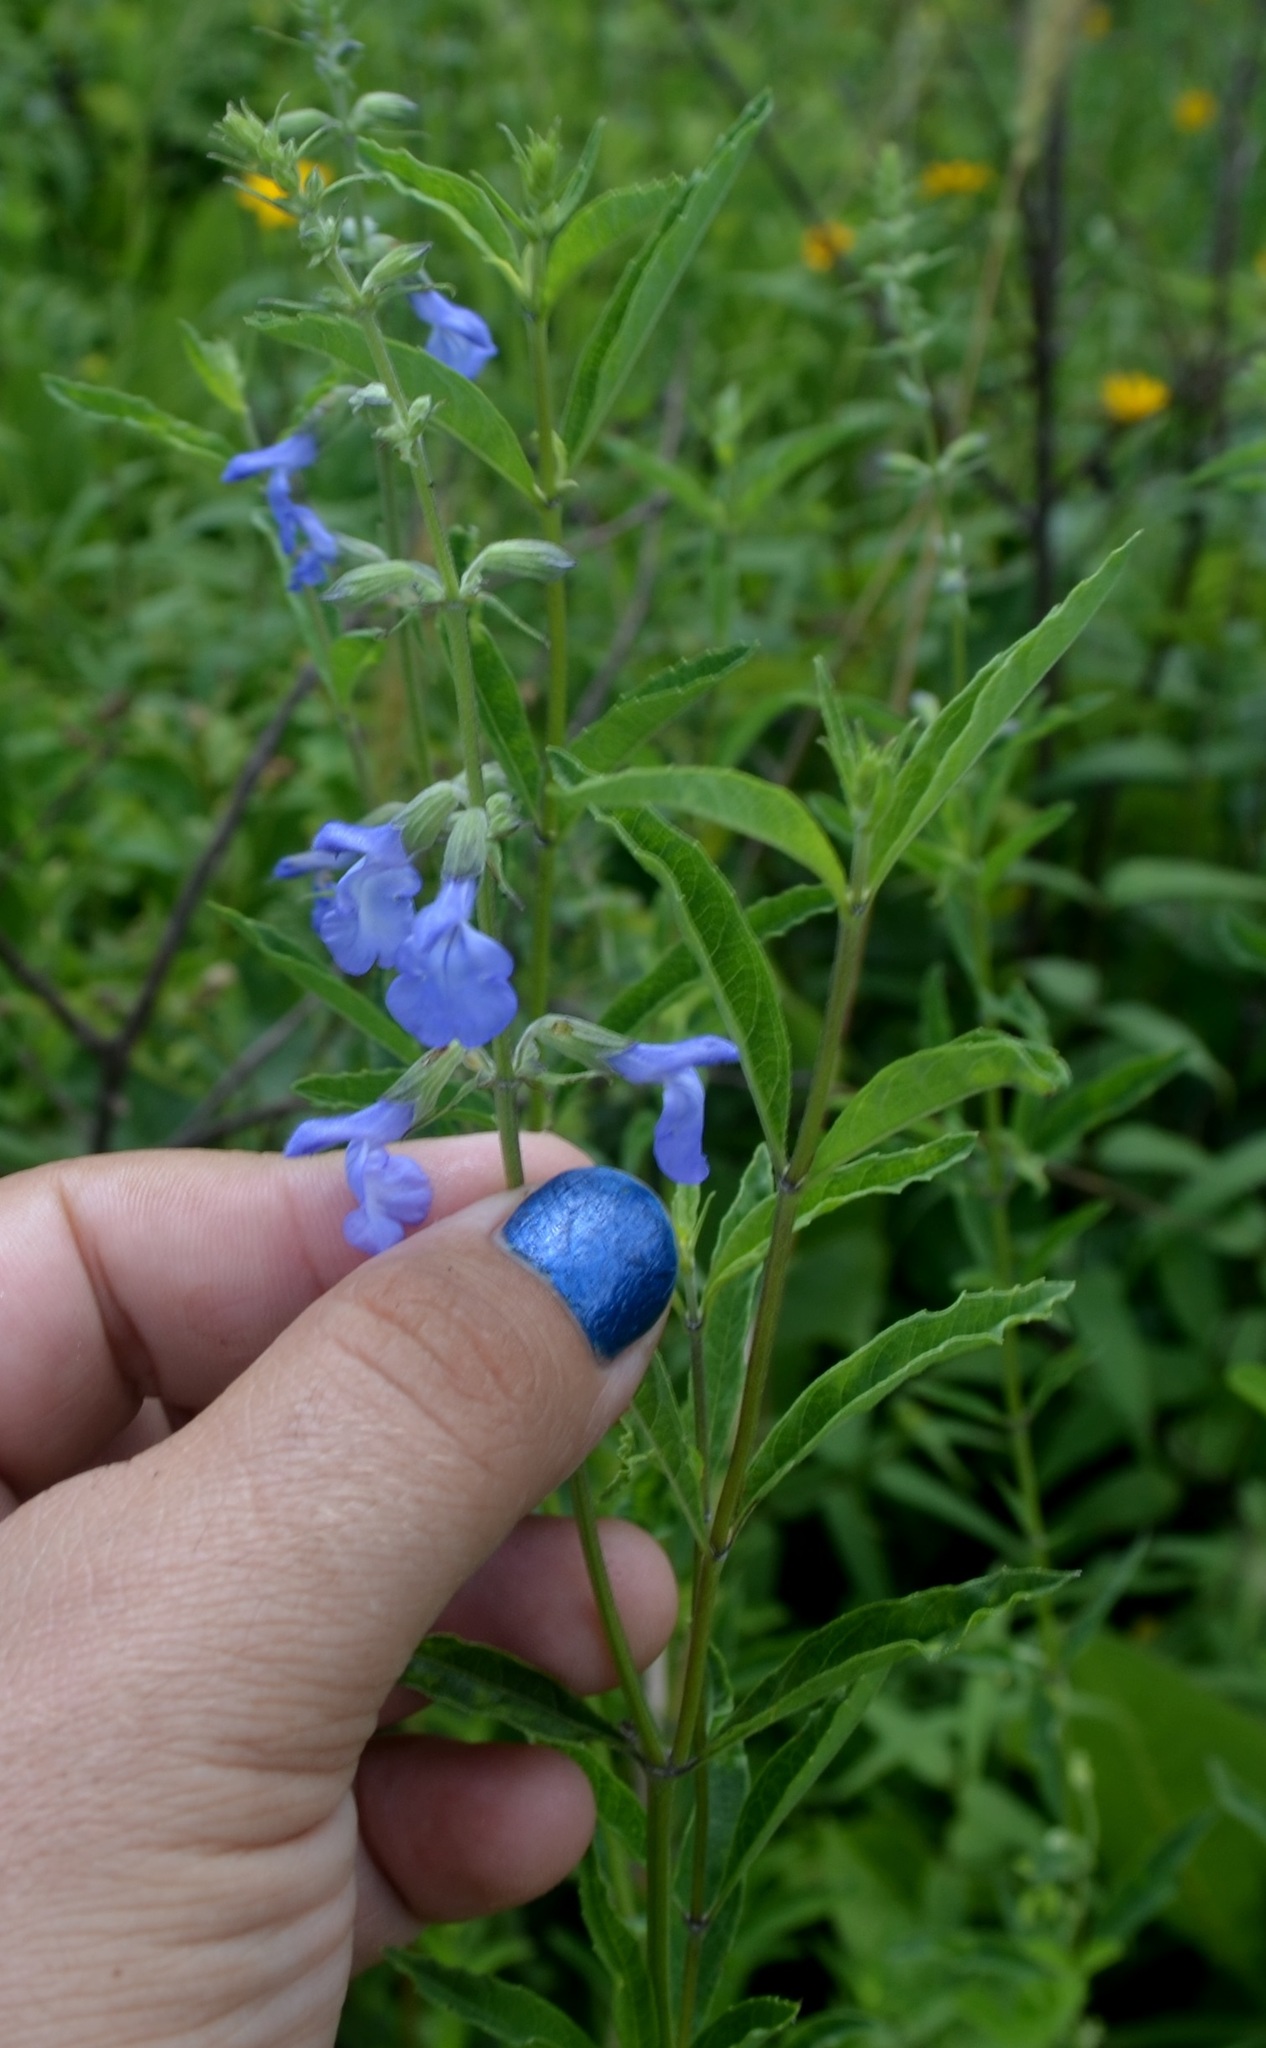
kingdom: Plantae
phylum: Tracheophyta
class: Magnoliopsida
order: Lamiales
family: Lamiaceae
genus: Salvia
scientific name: Salvia azurea
